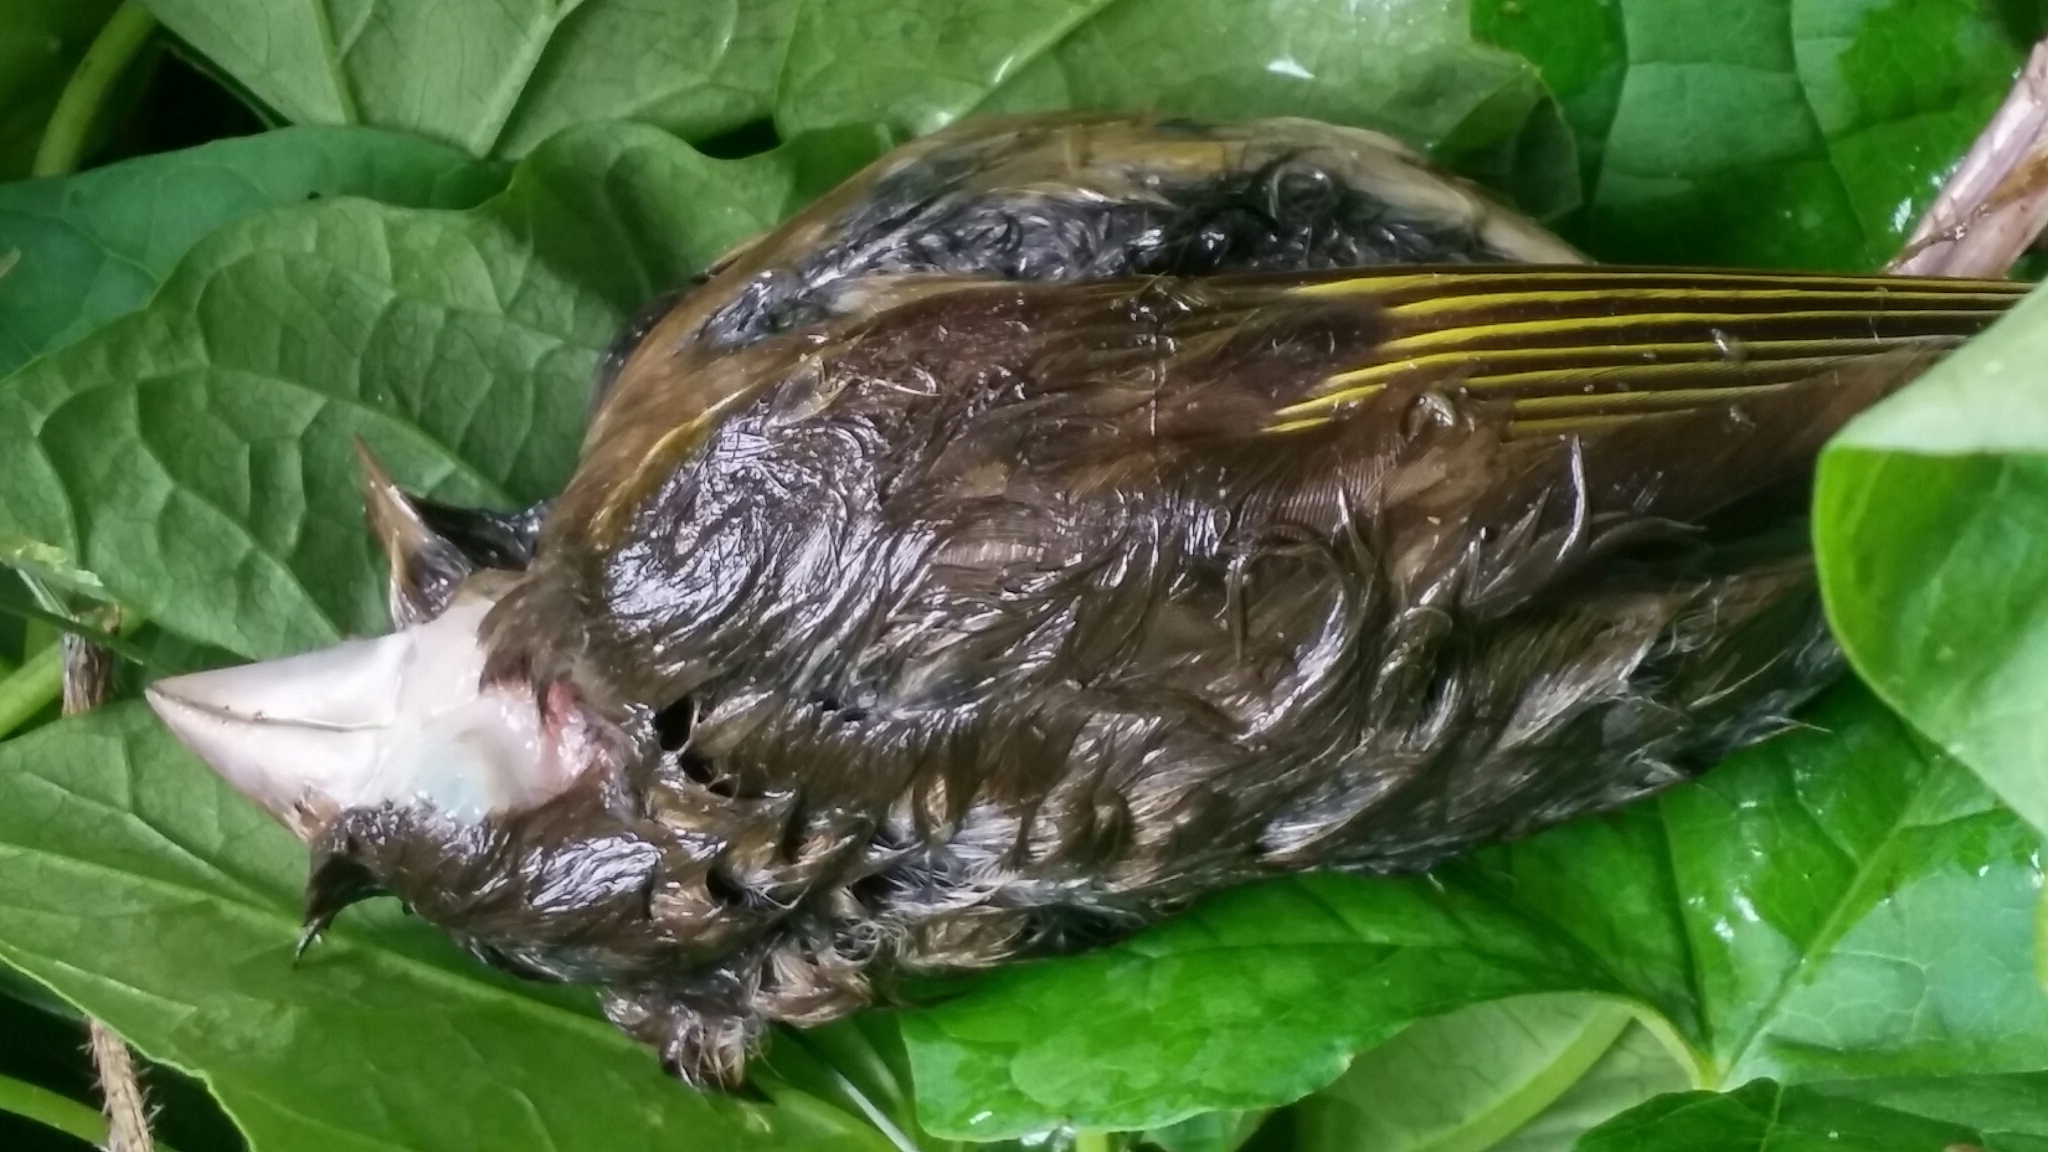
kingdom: Plantae
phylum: Tracheophyta
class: Liliopsida
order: Poales
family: Poaceae
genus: Chloris
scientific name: Chloris chloris
